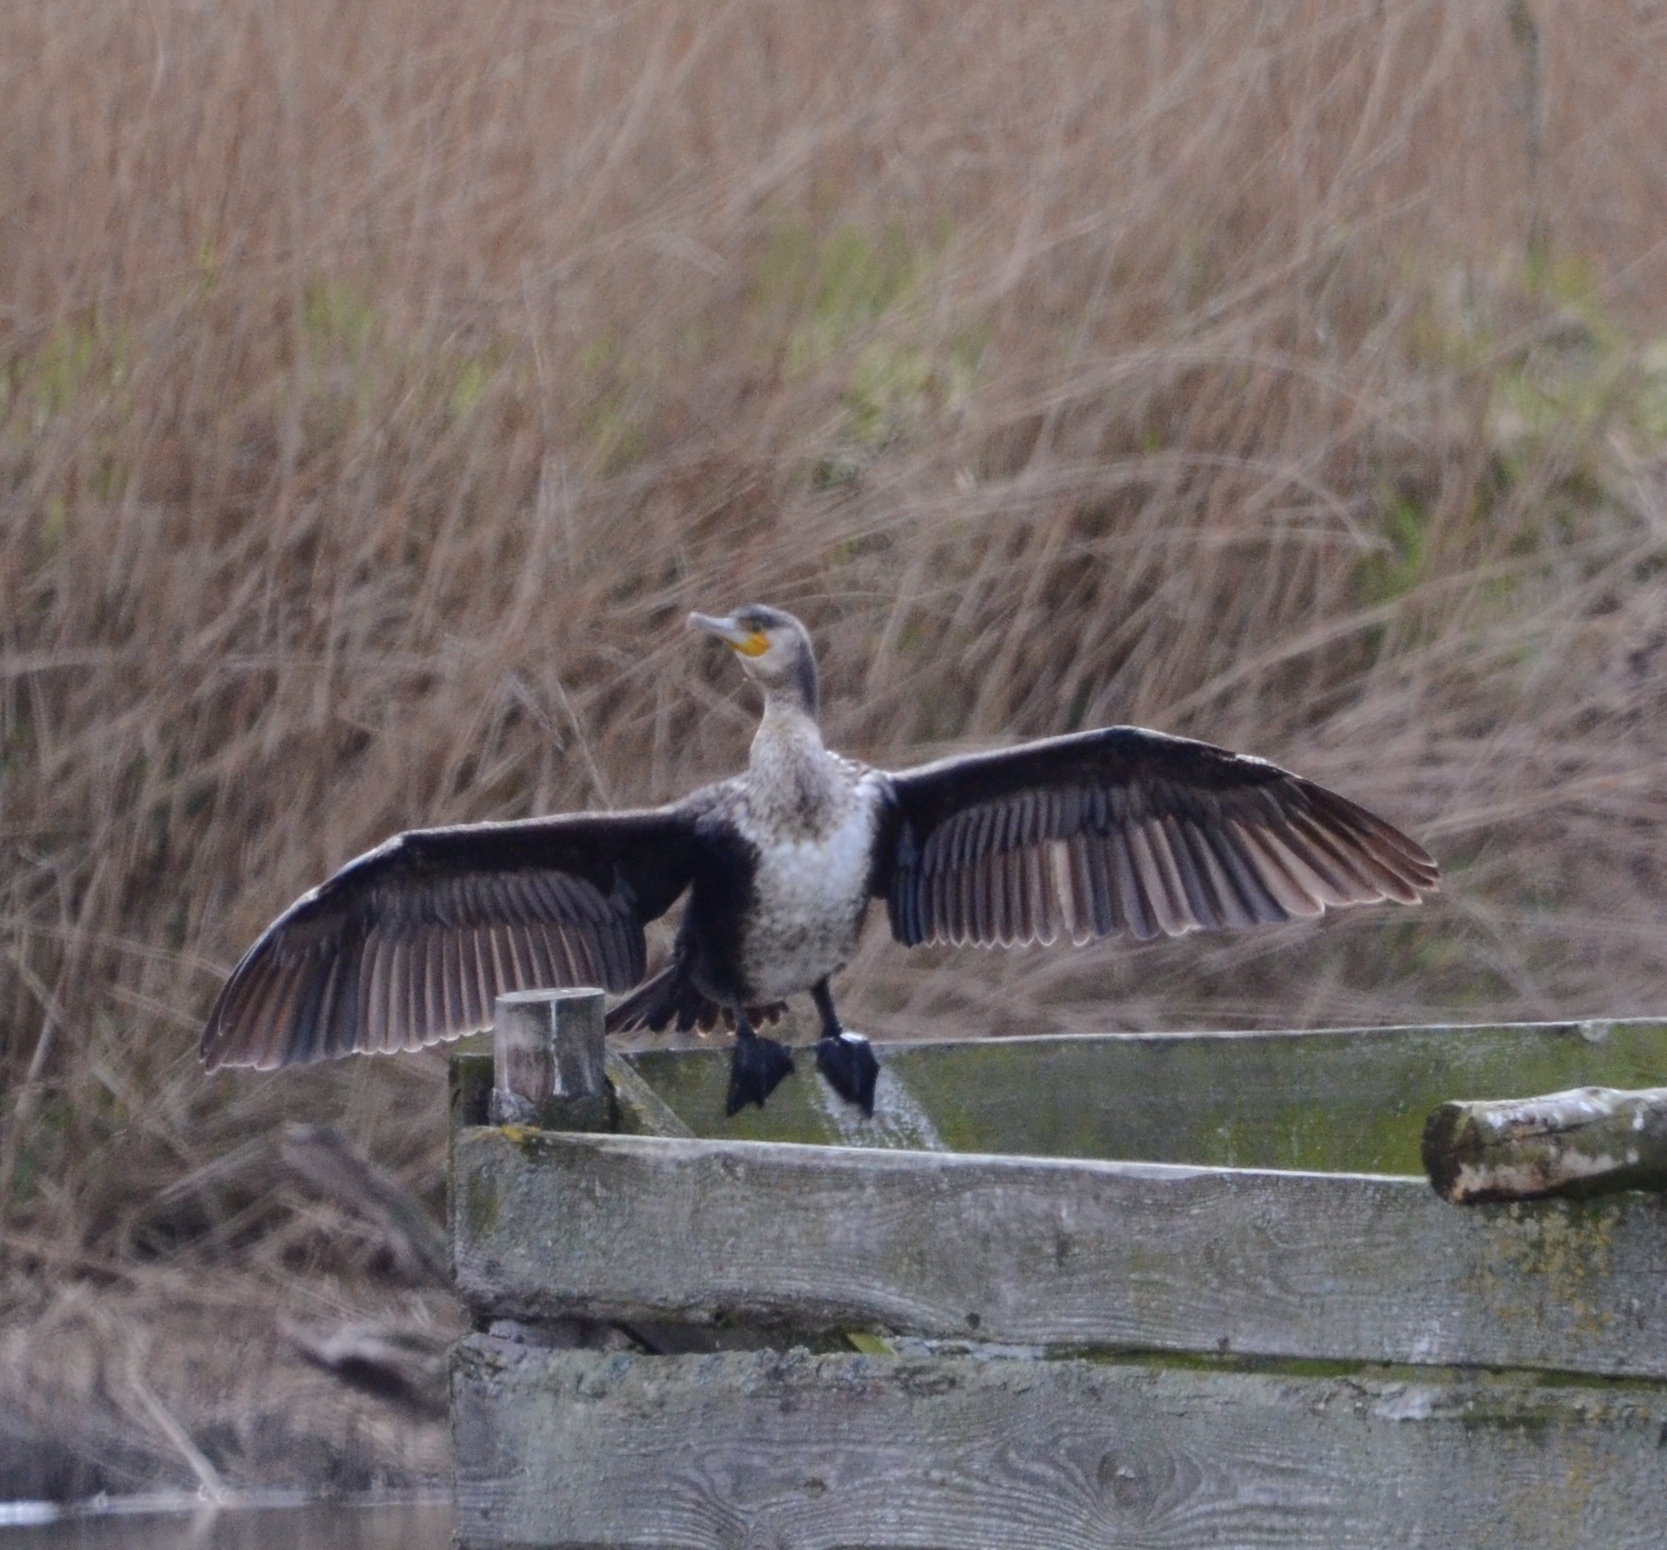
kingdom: Animalia
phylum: Chordata
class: Aves
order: Suliformes
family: Phalacrocoracidae
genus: Phalacrocorax
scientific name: Phalacrocorax carbo
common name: Great cormorant
